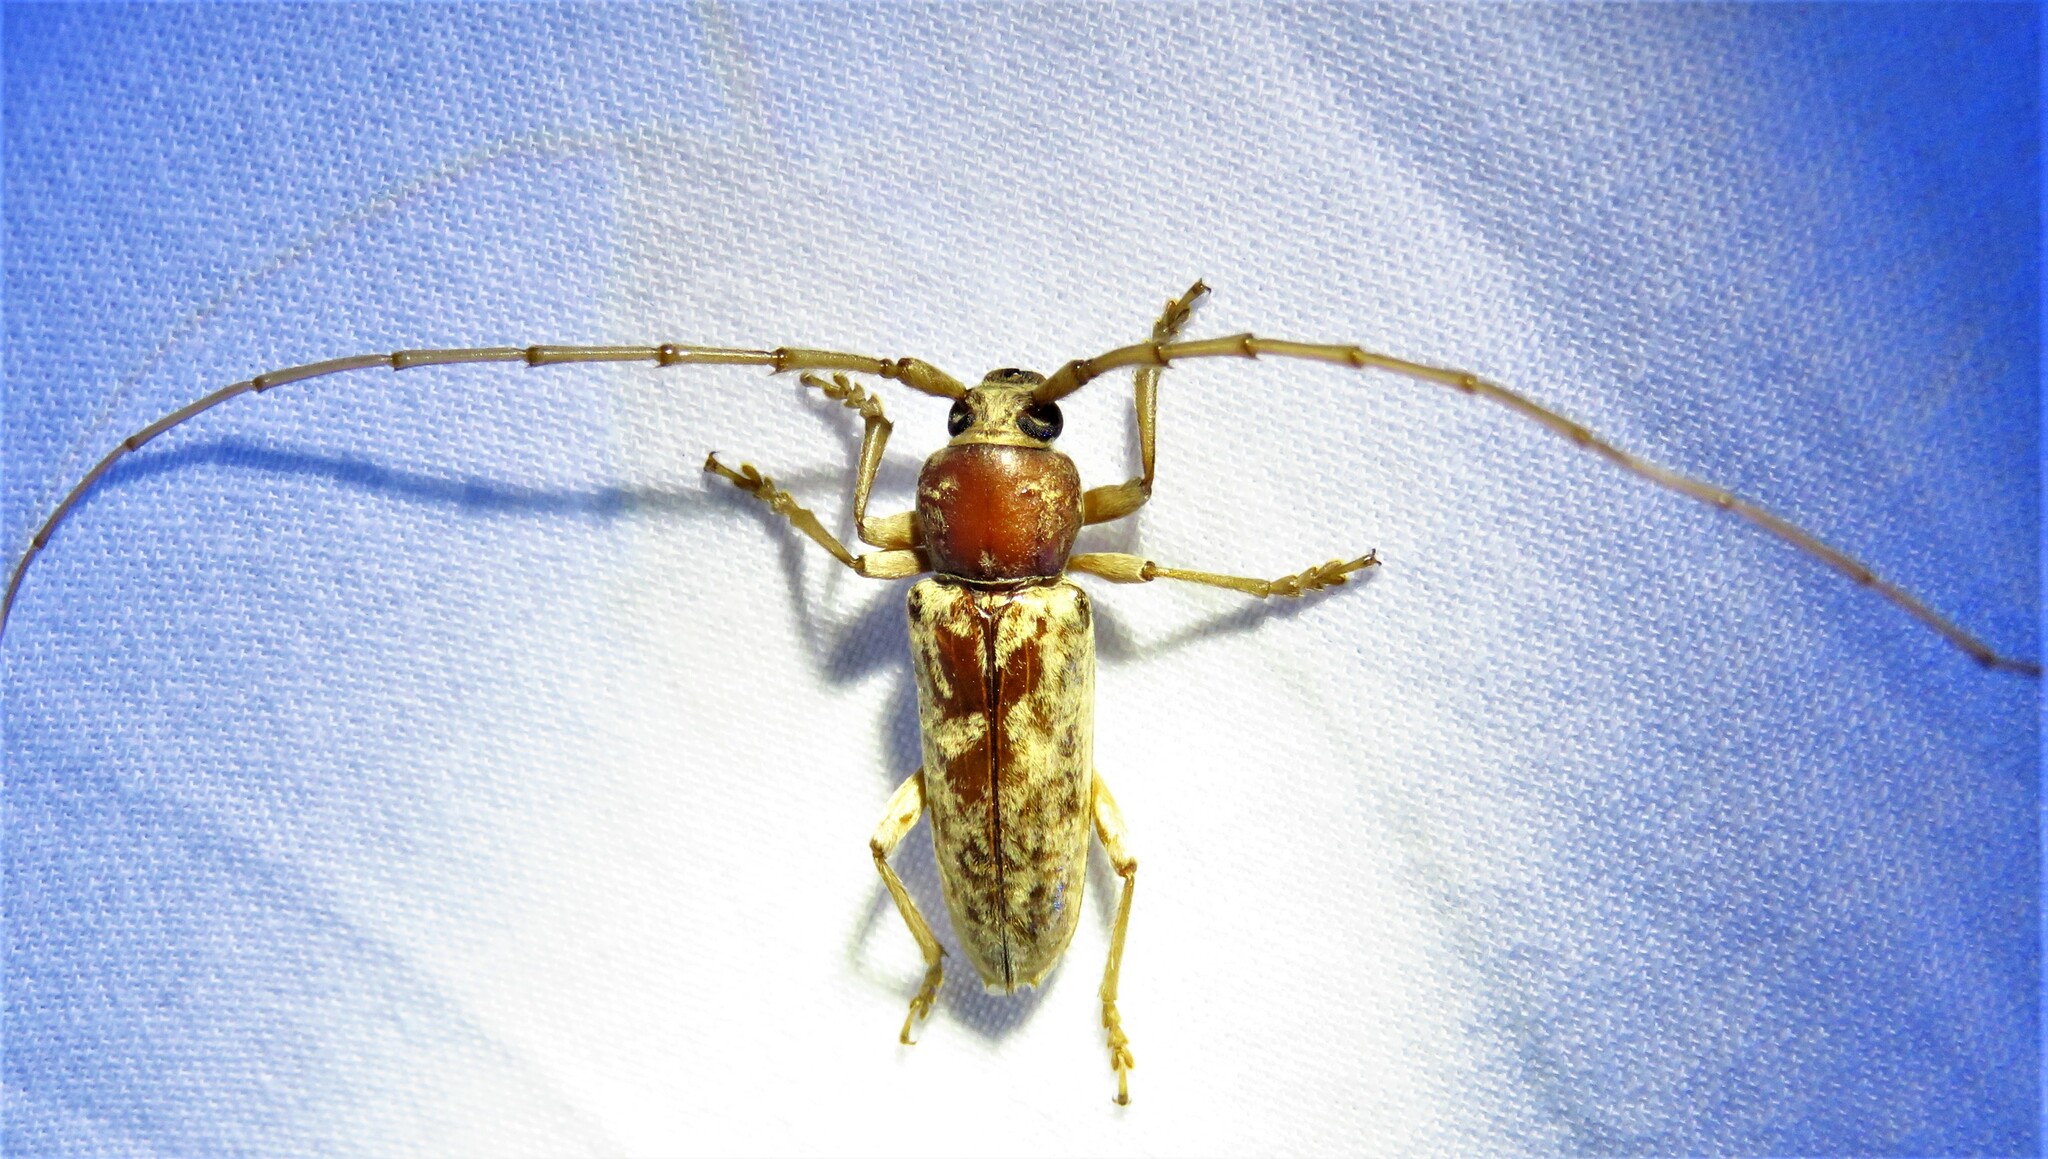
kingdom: Animalia
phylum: Arthropoda
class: Insecta
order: Coleoptera
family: Cerambycidae
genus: Enaphalodes
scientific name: Enaphalodes rufulus
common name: Red oak borer
